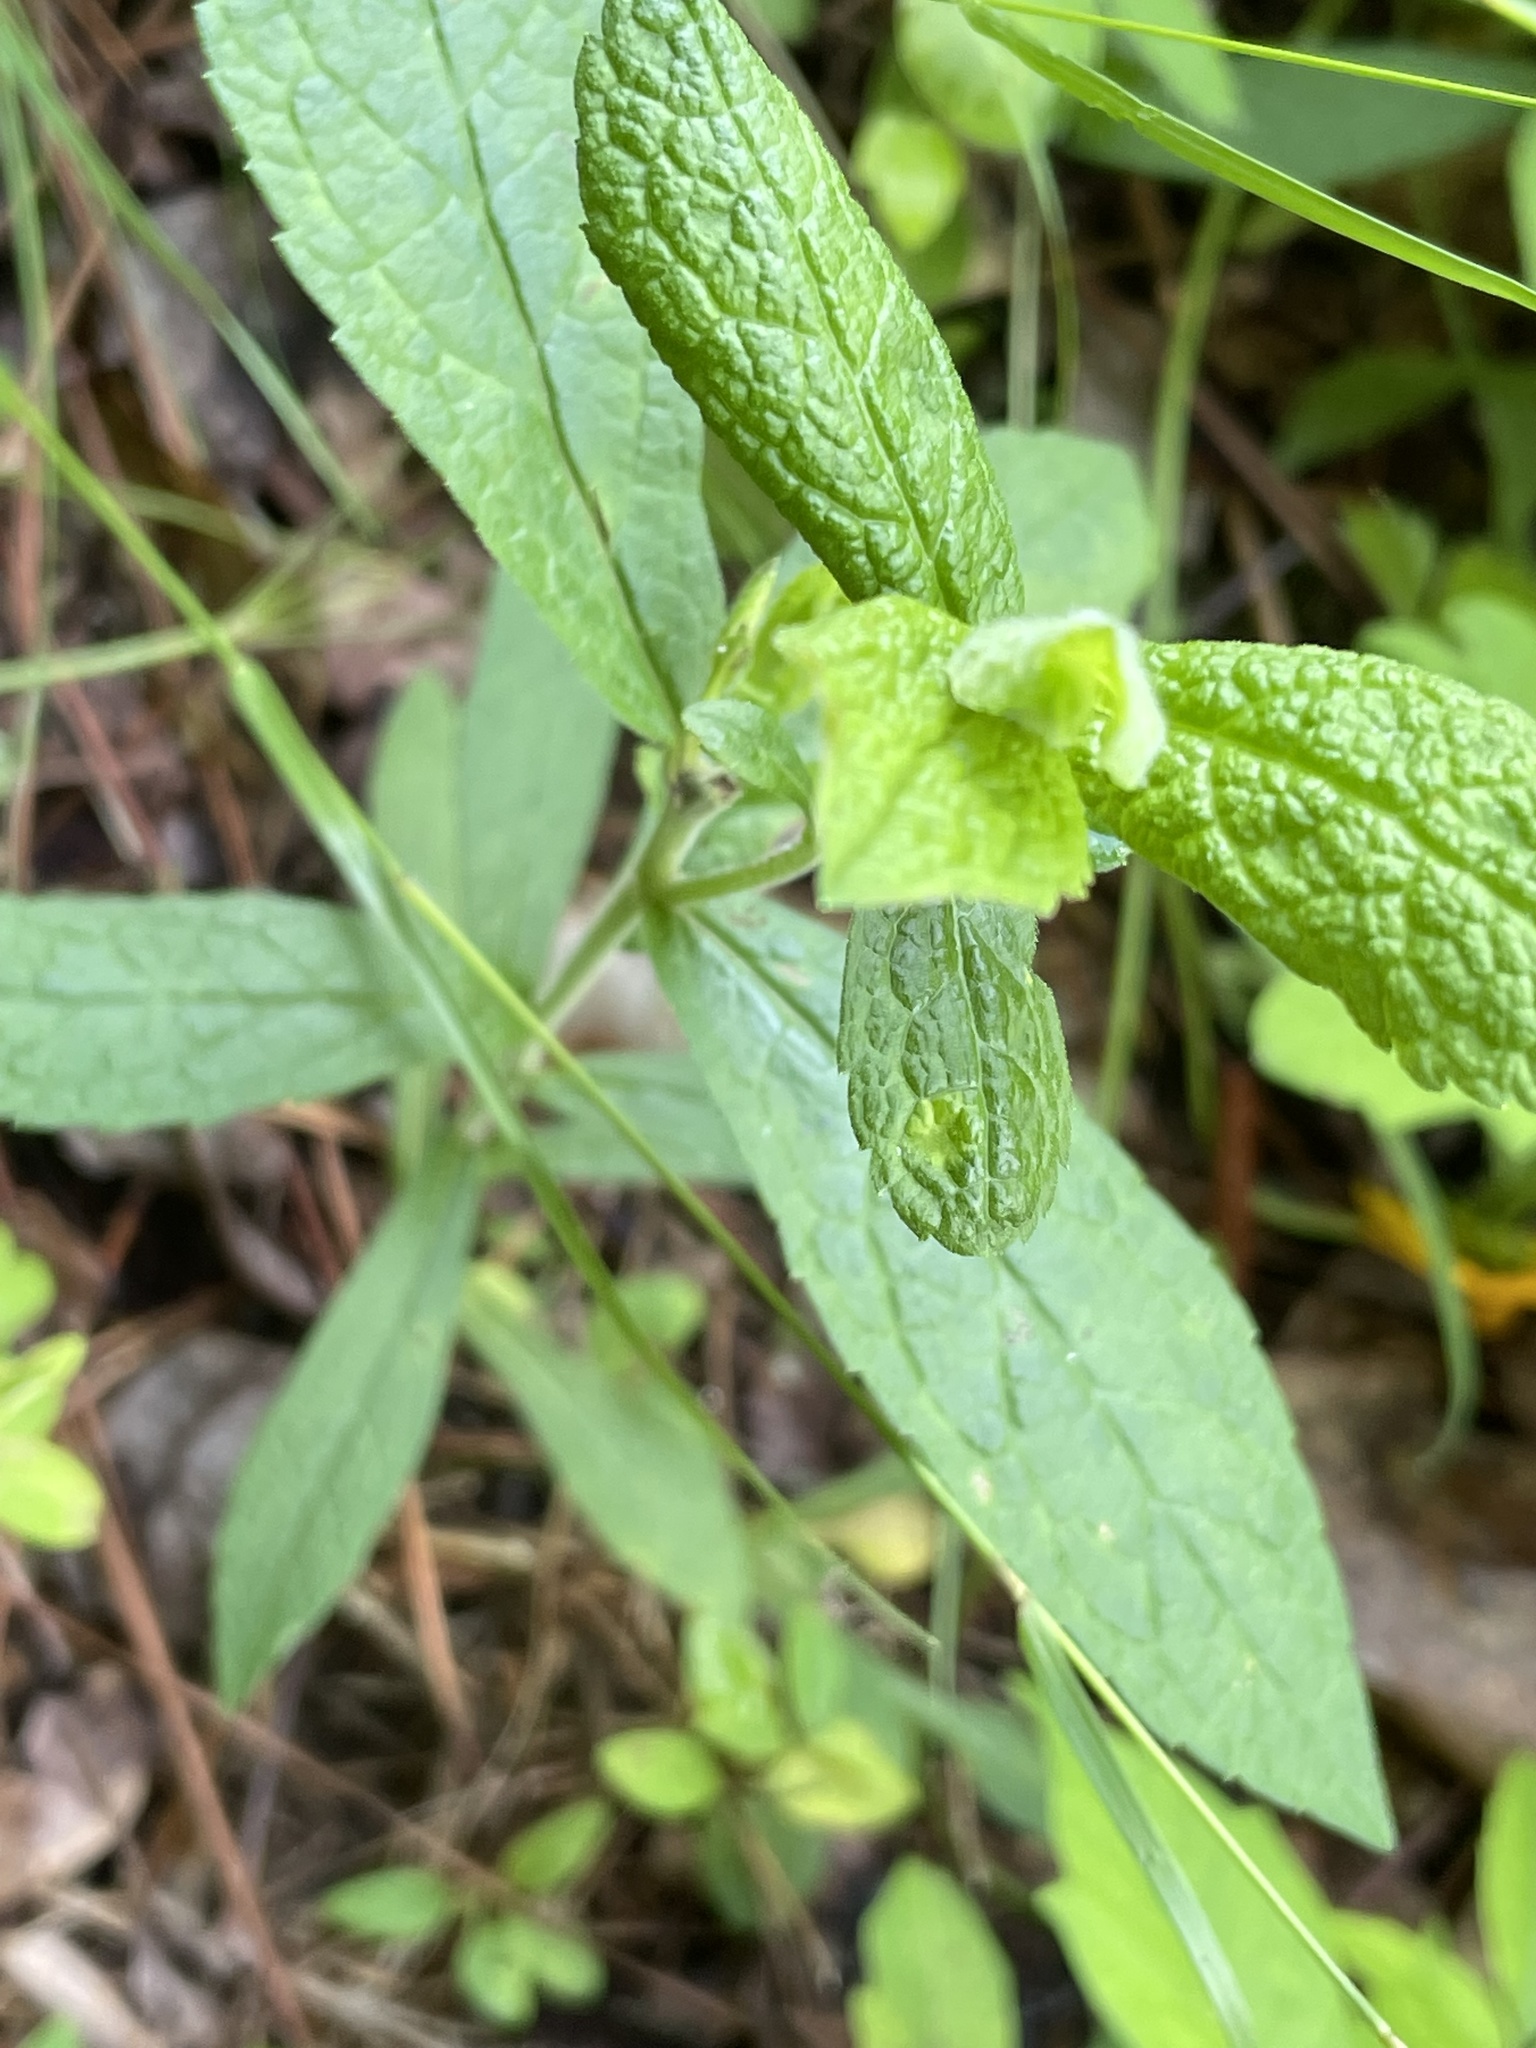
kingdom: Plantae
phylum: Tracheophyta
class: Magnoliopsida
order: Asterales
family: Asteraceae
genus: Solidago
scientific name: Solidago rugosa
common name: Rough-stemmed goldenrod
